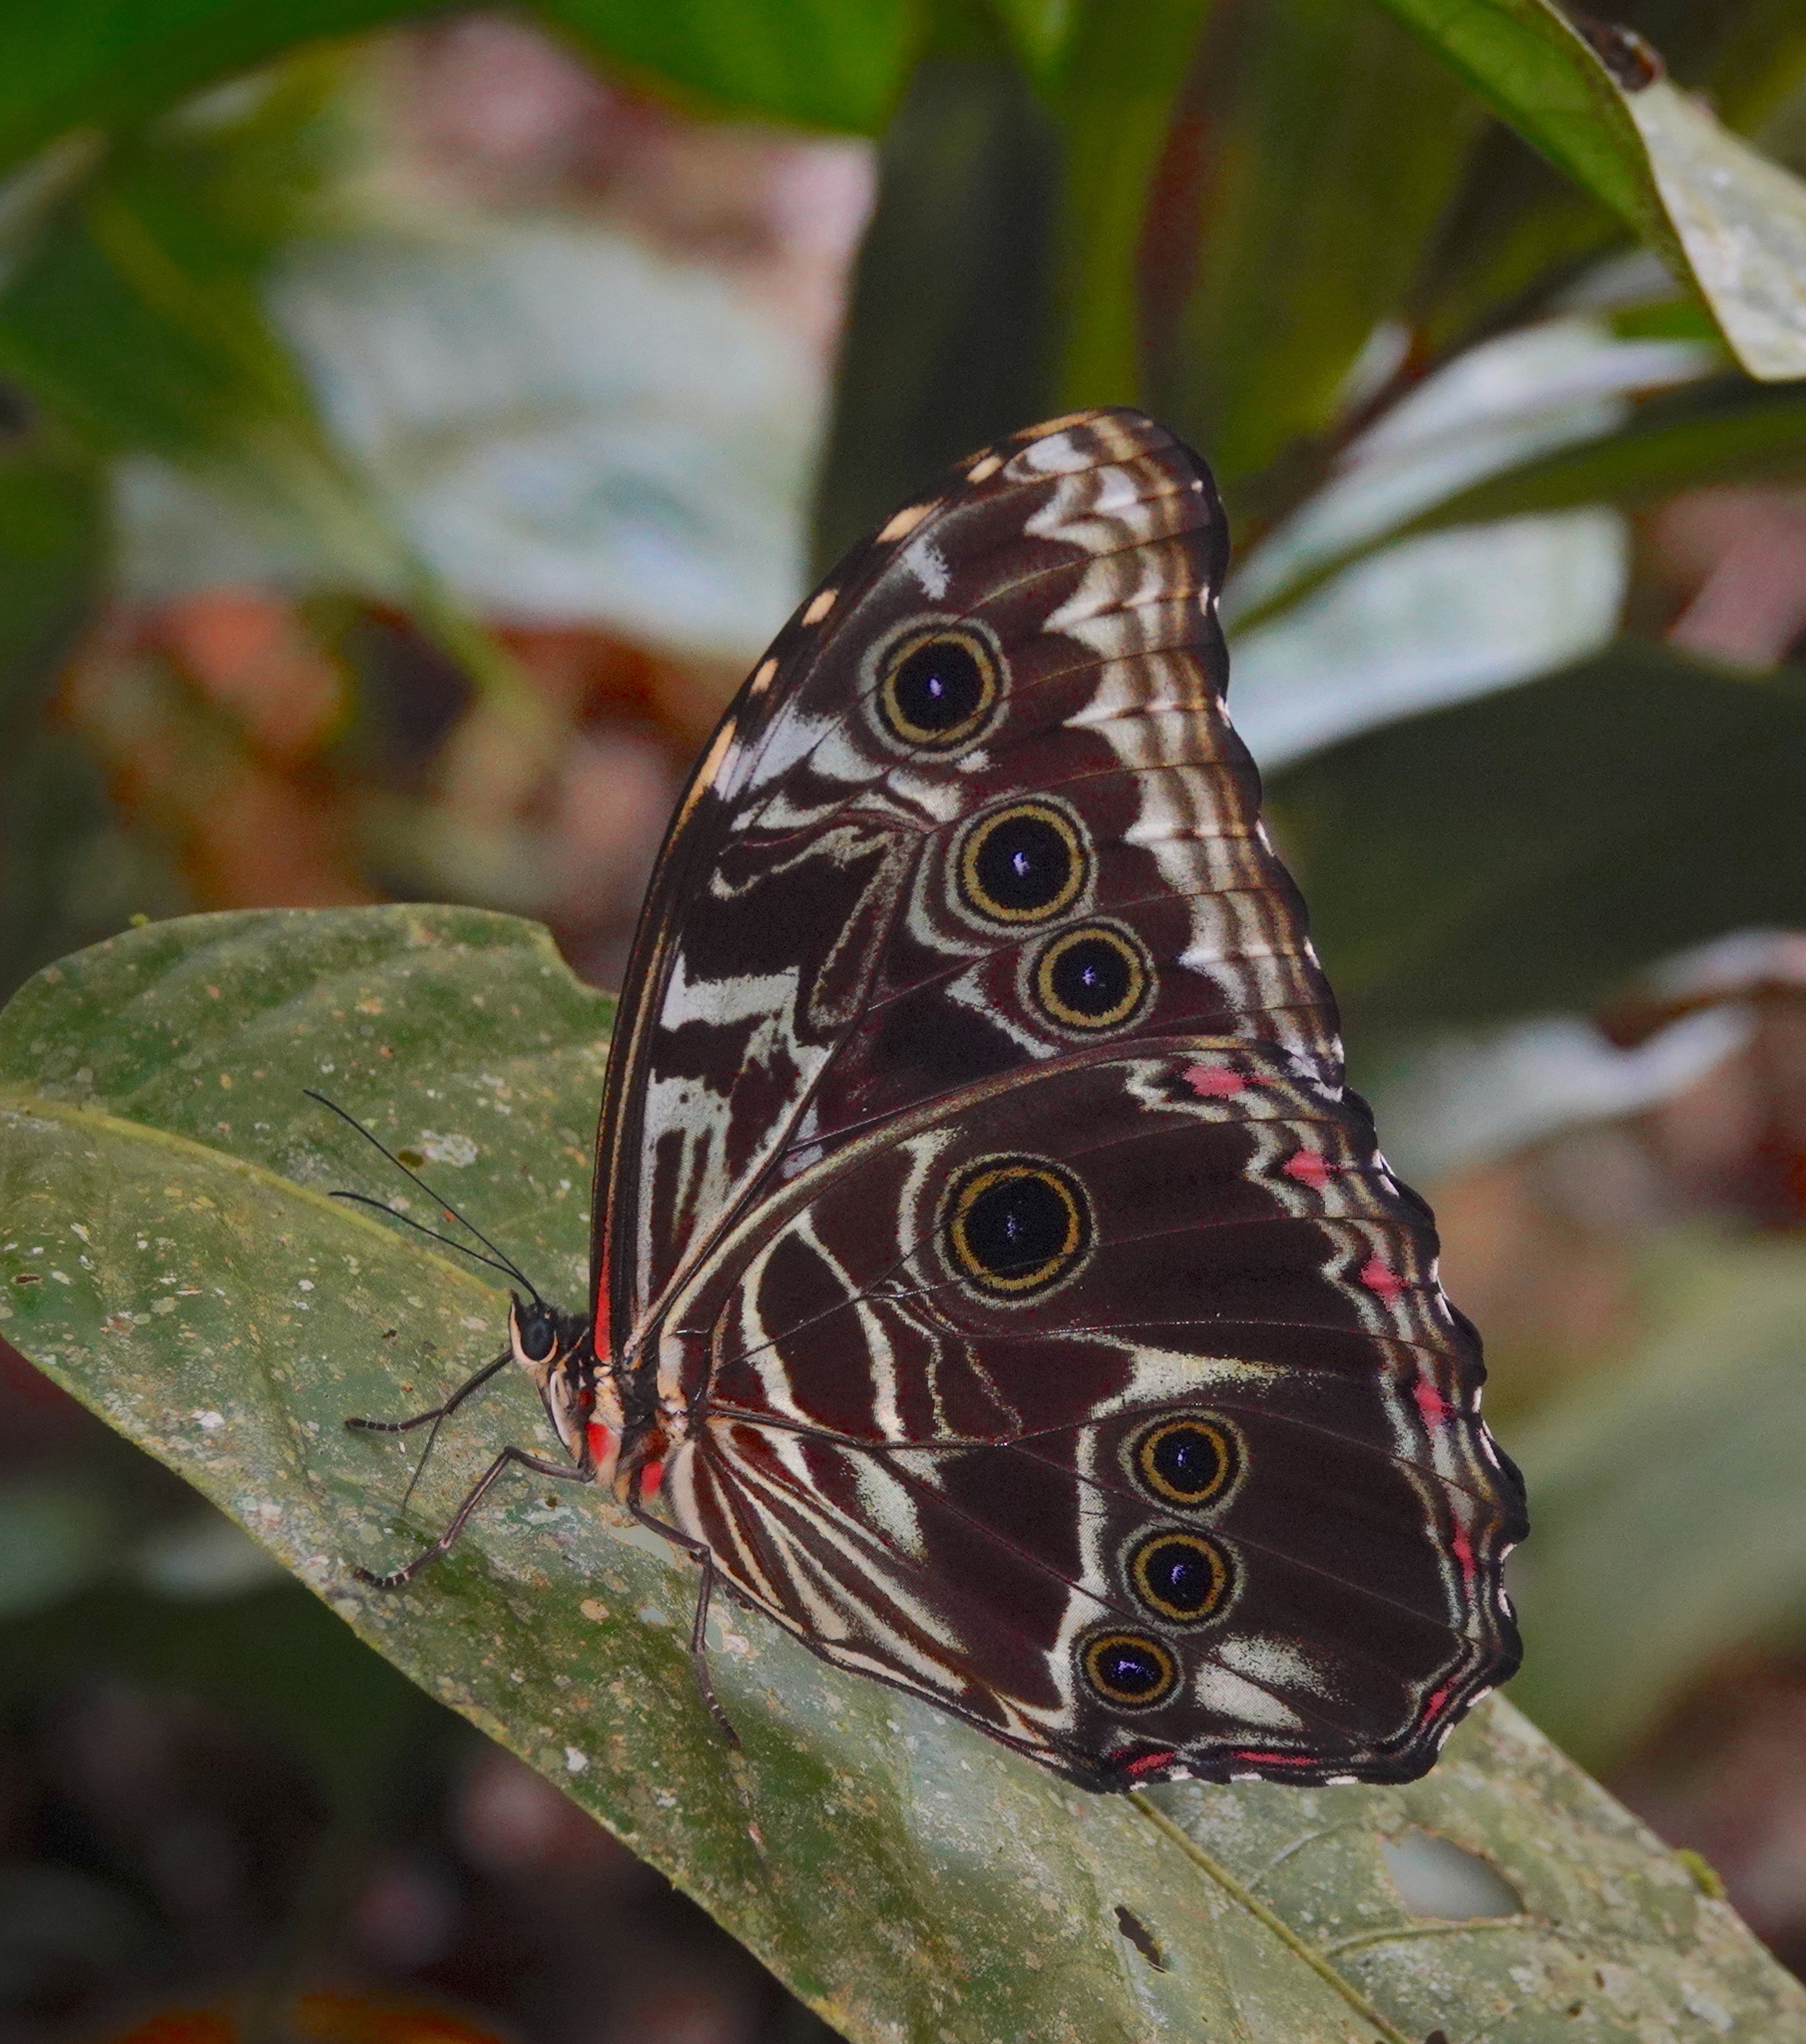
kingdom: Animalia
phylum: Arthropoda
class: Insecta
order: Lepidoptera
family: Nymphalidae
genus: Morpho
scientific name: Morpho deidamia
